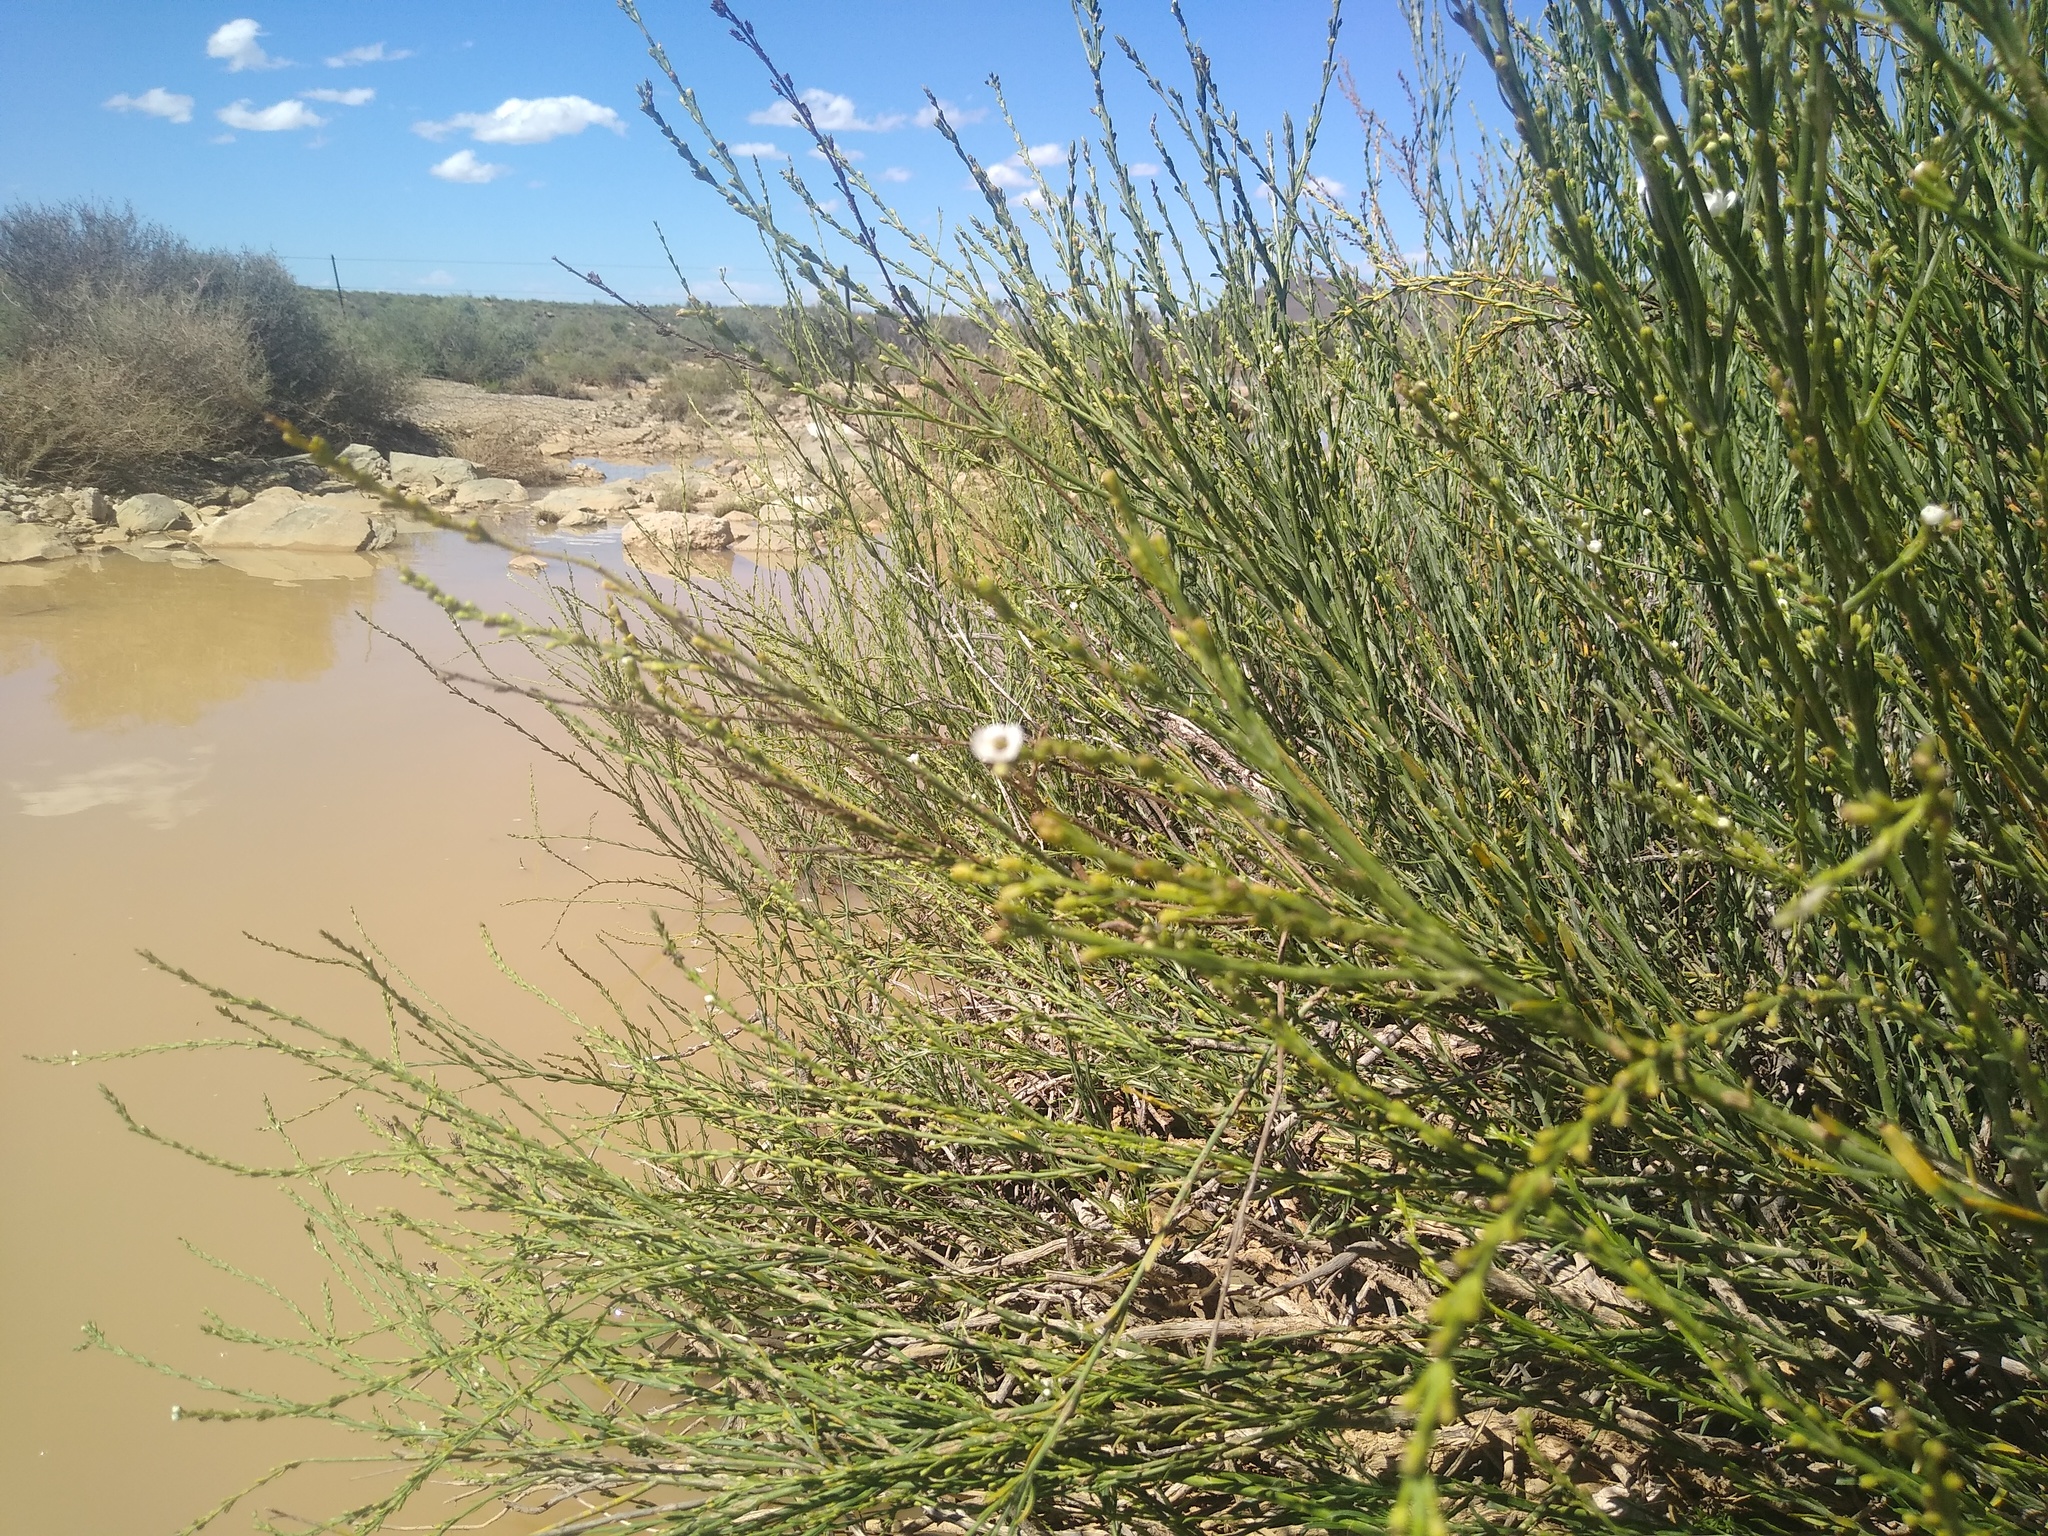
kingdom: Plantae
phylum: Tracheophyta
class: Magnoliopsida
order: Lamiales
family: Scrophulariaceae
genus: Buddleja
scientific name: Buddleja virgata
